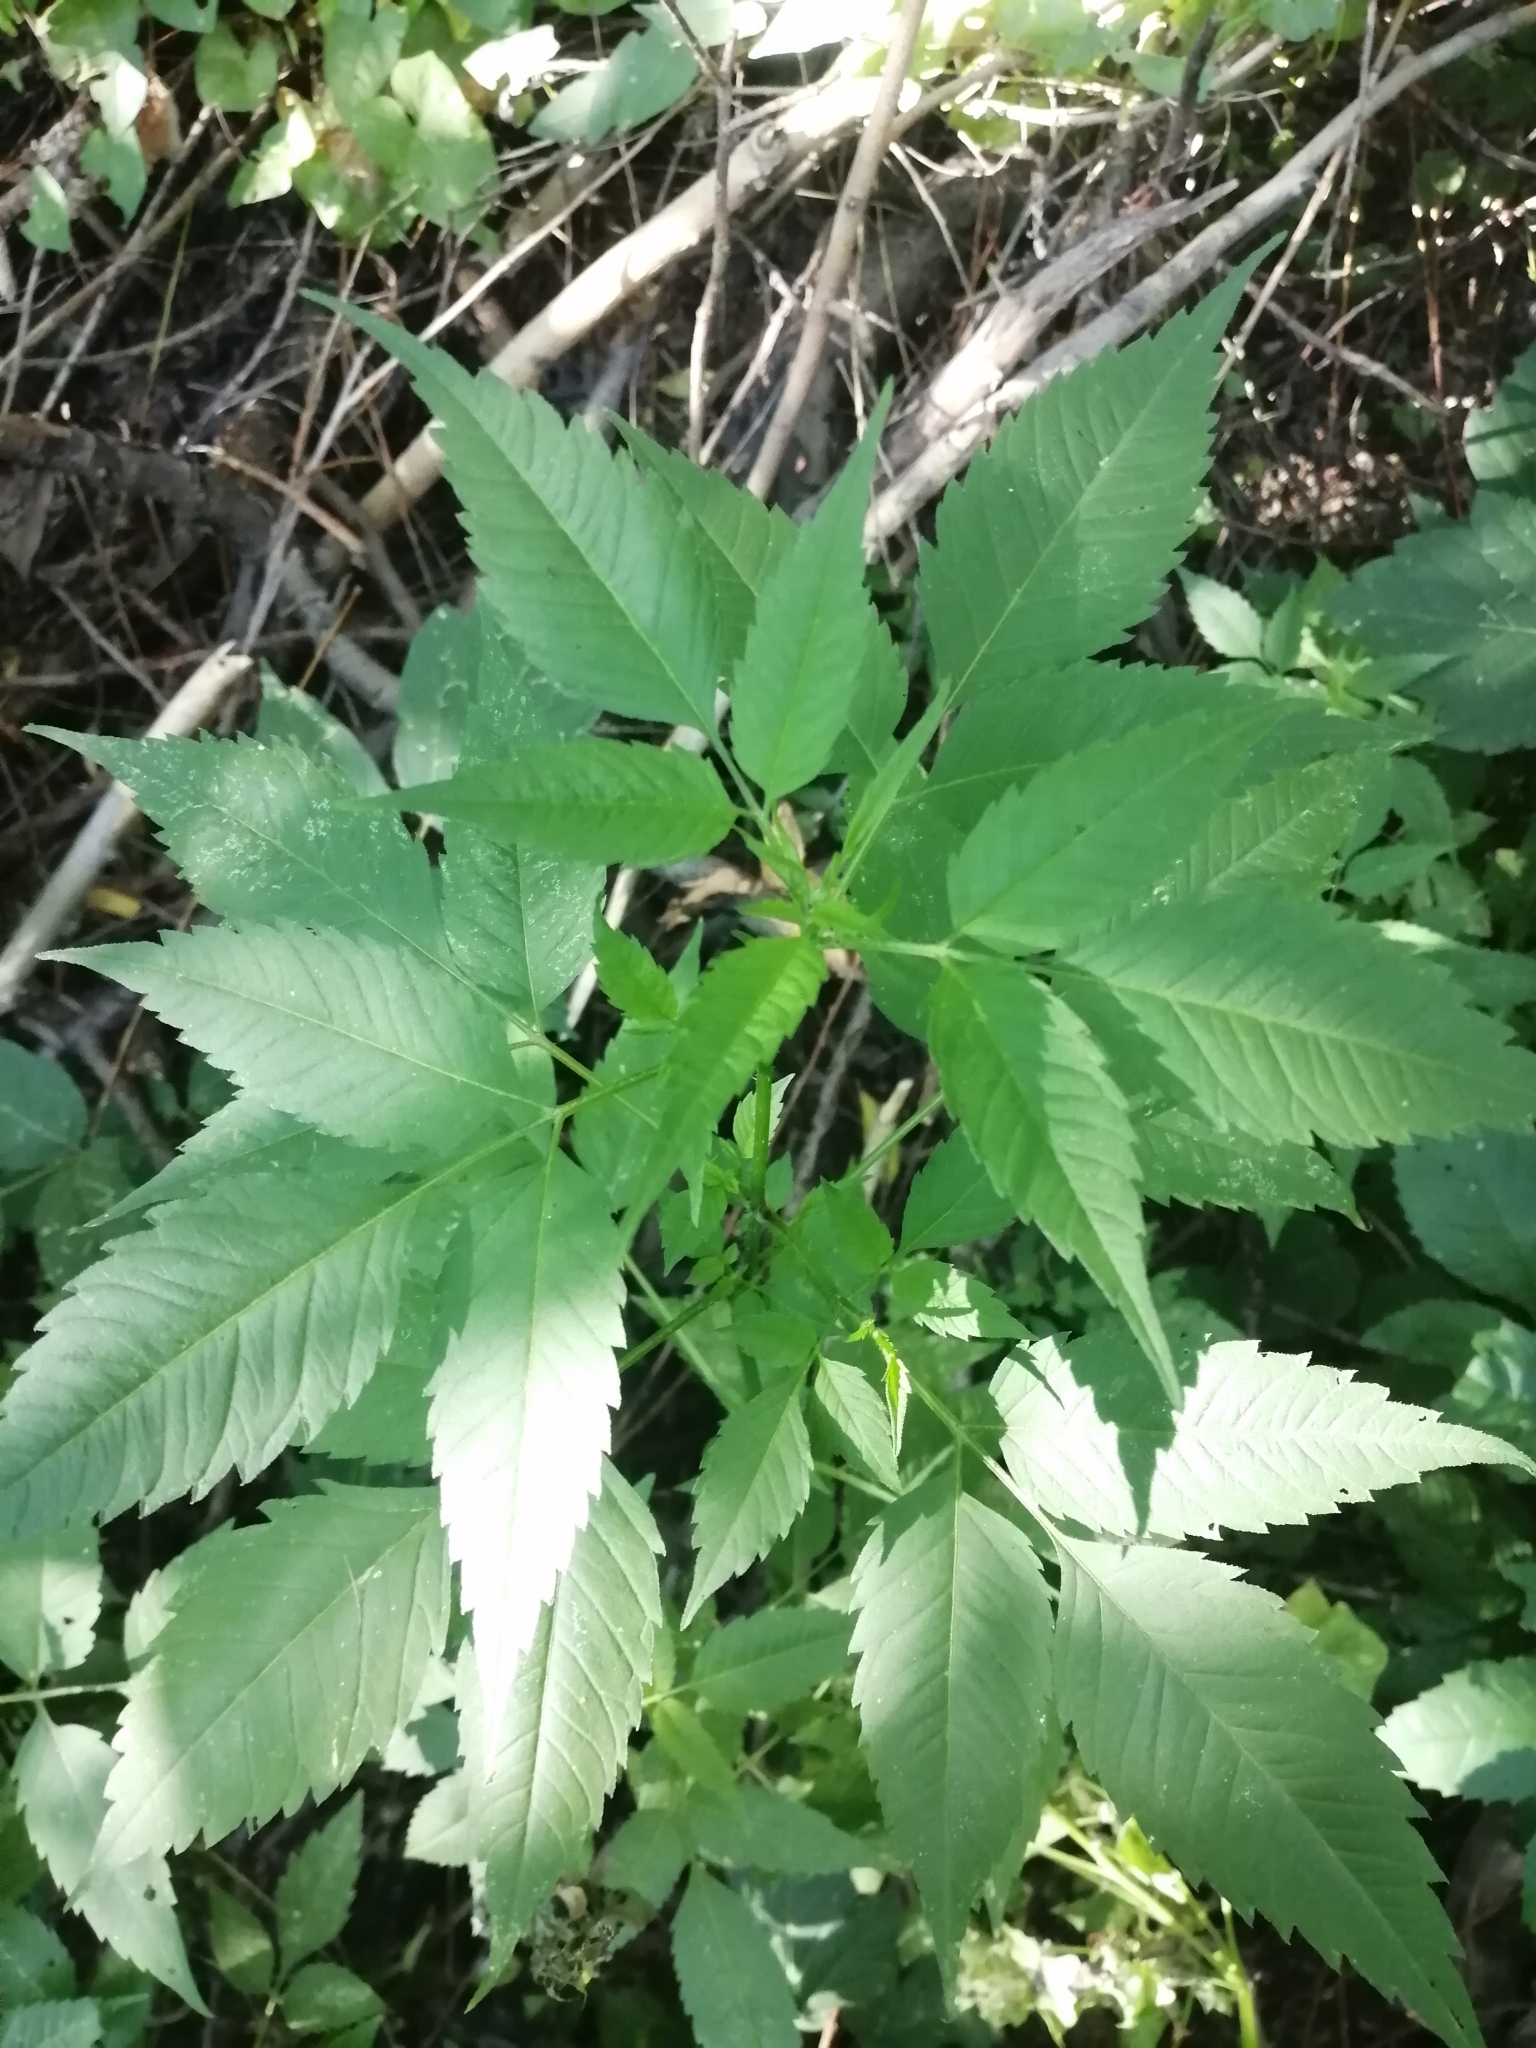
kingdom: Plantae
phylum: Tracheophyta
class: Magnoliopsida
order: Asterales
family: Asteraceae
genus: Bidens
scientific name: Bidens frondosa
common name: Beggarticks
